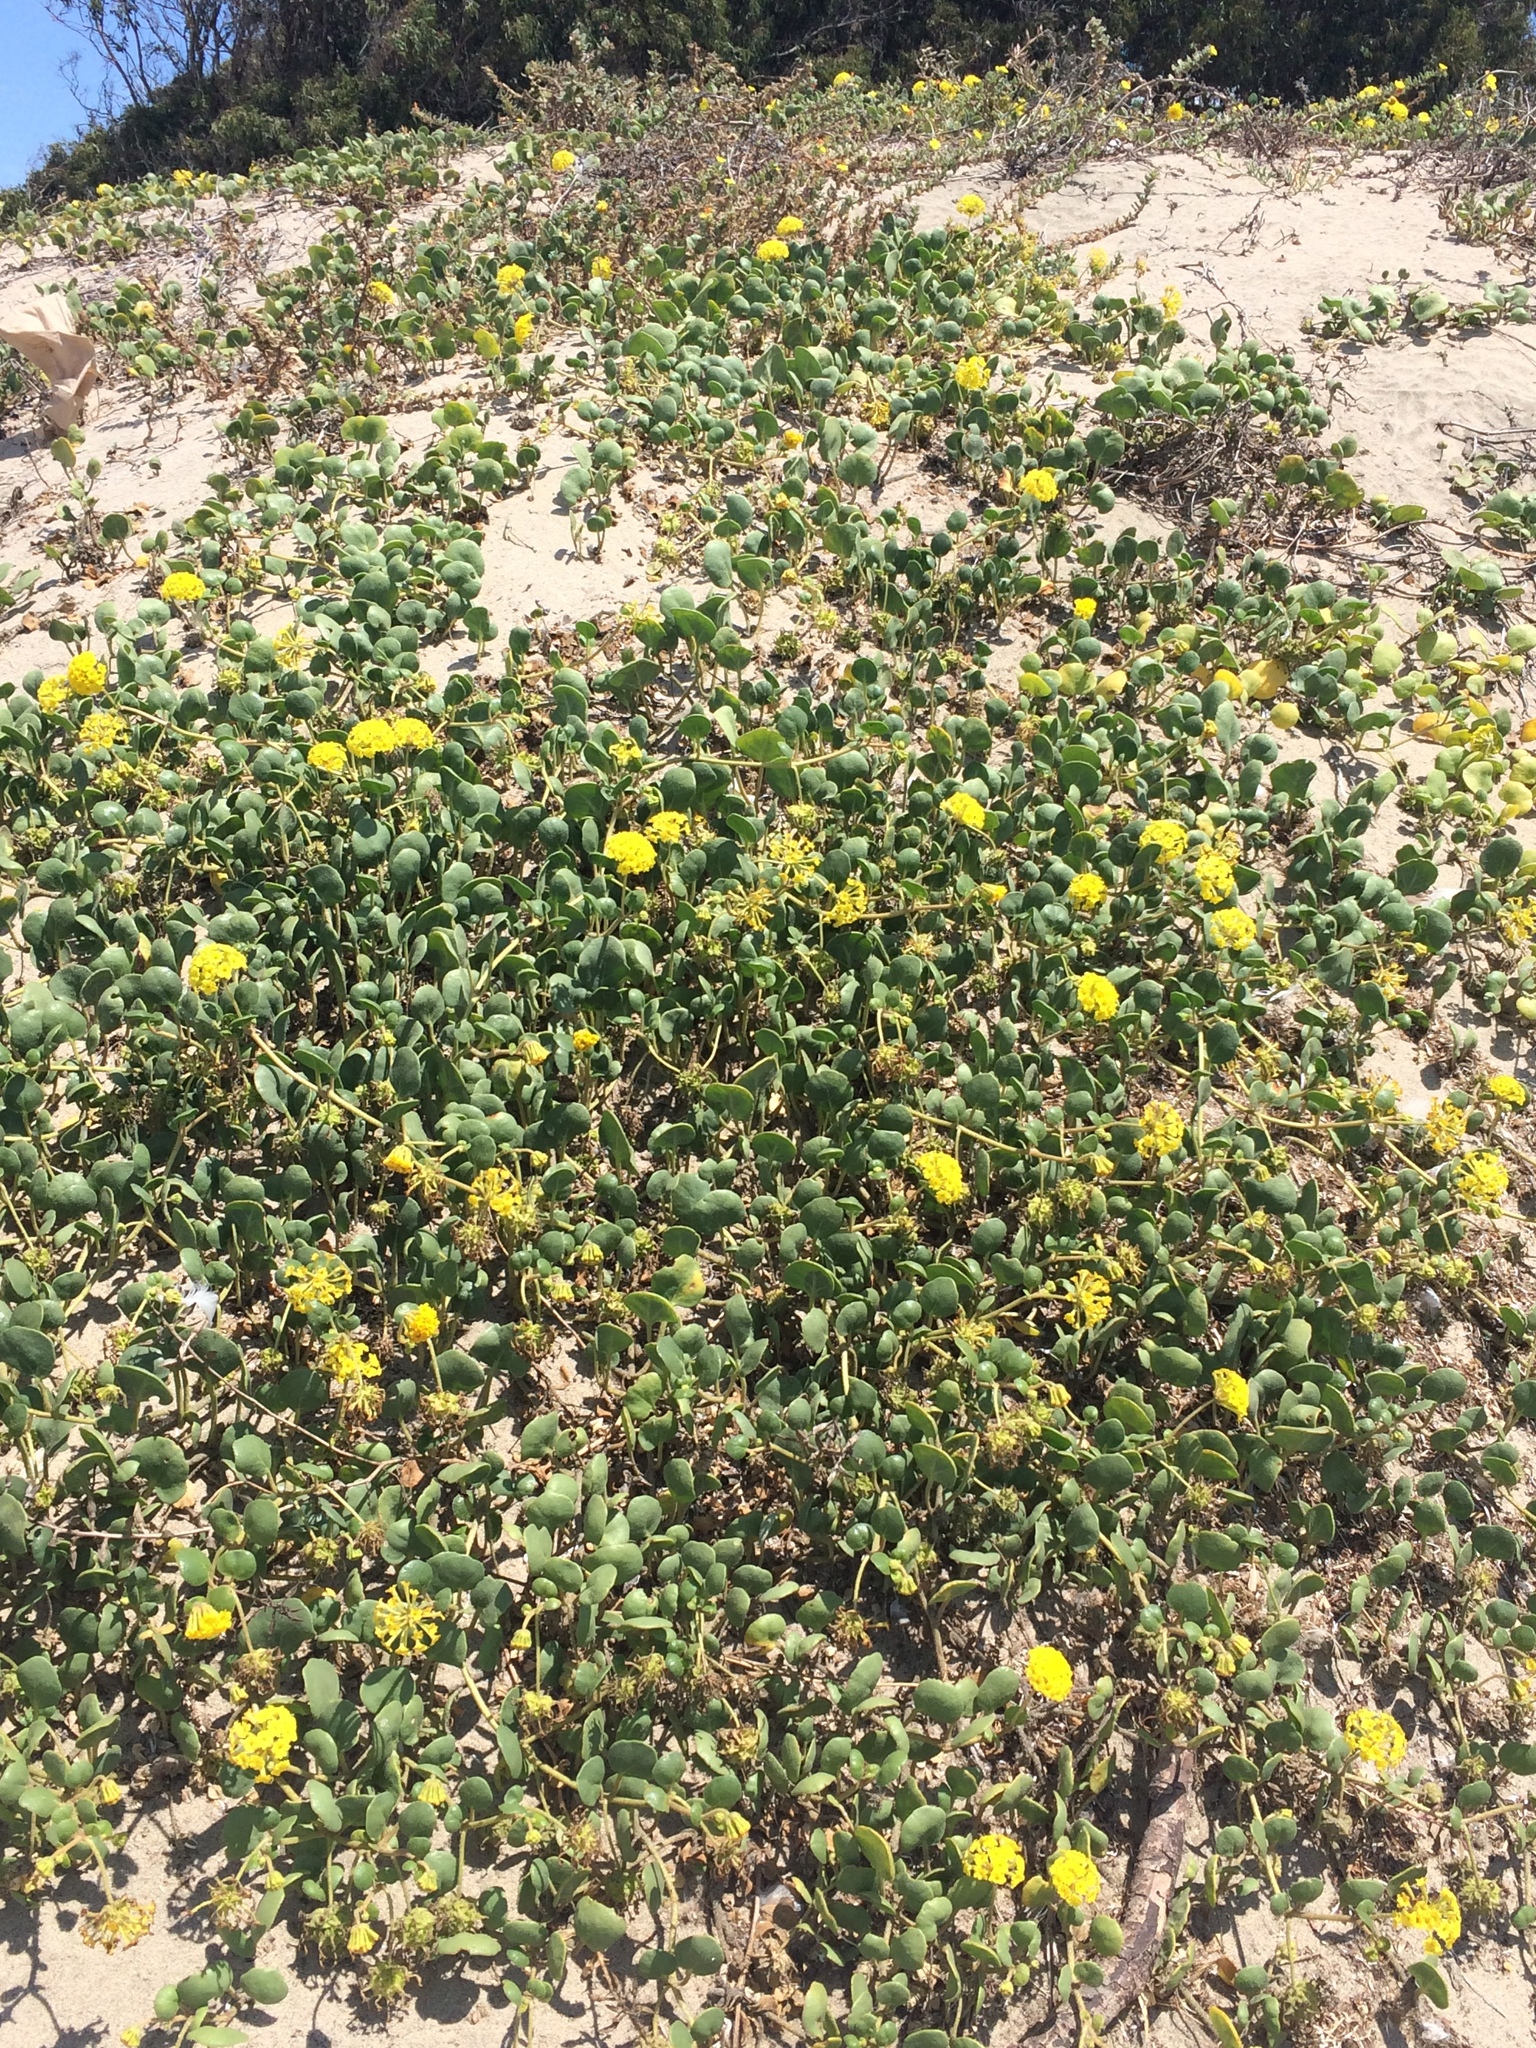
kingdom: Plantae
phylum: Tracheophyta
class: Magnoliopsida
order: Caryophyllales
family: Nyctaginaceae
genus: Abronia
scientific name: Abronia latifolia
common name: Yellow sand-verbena
